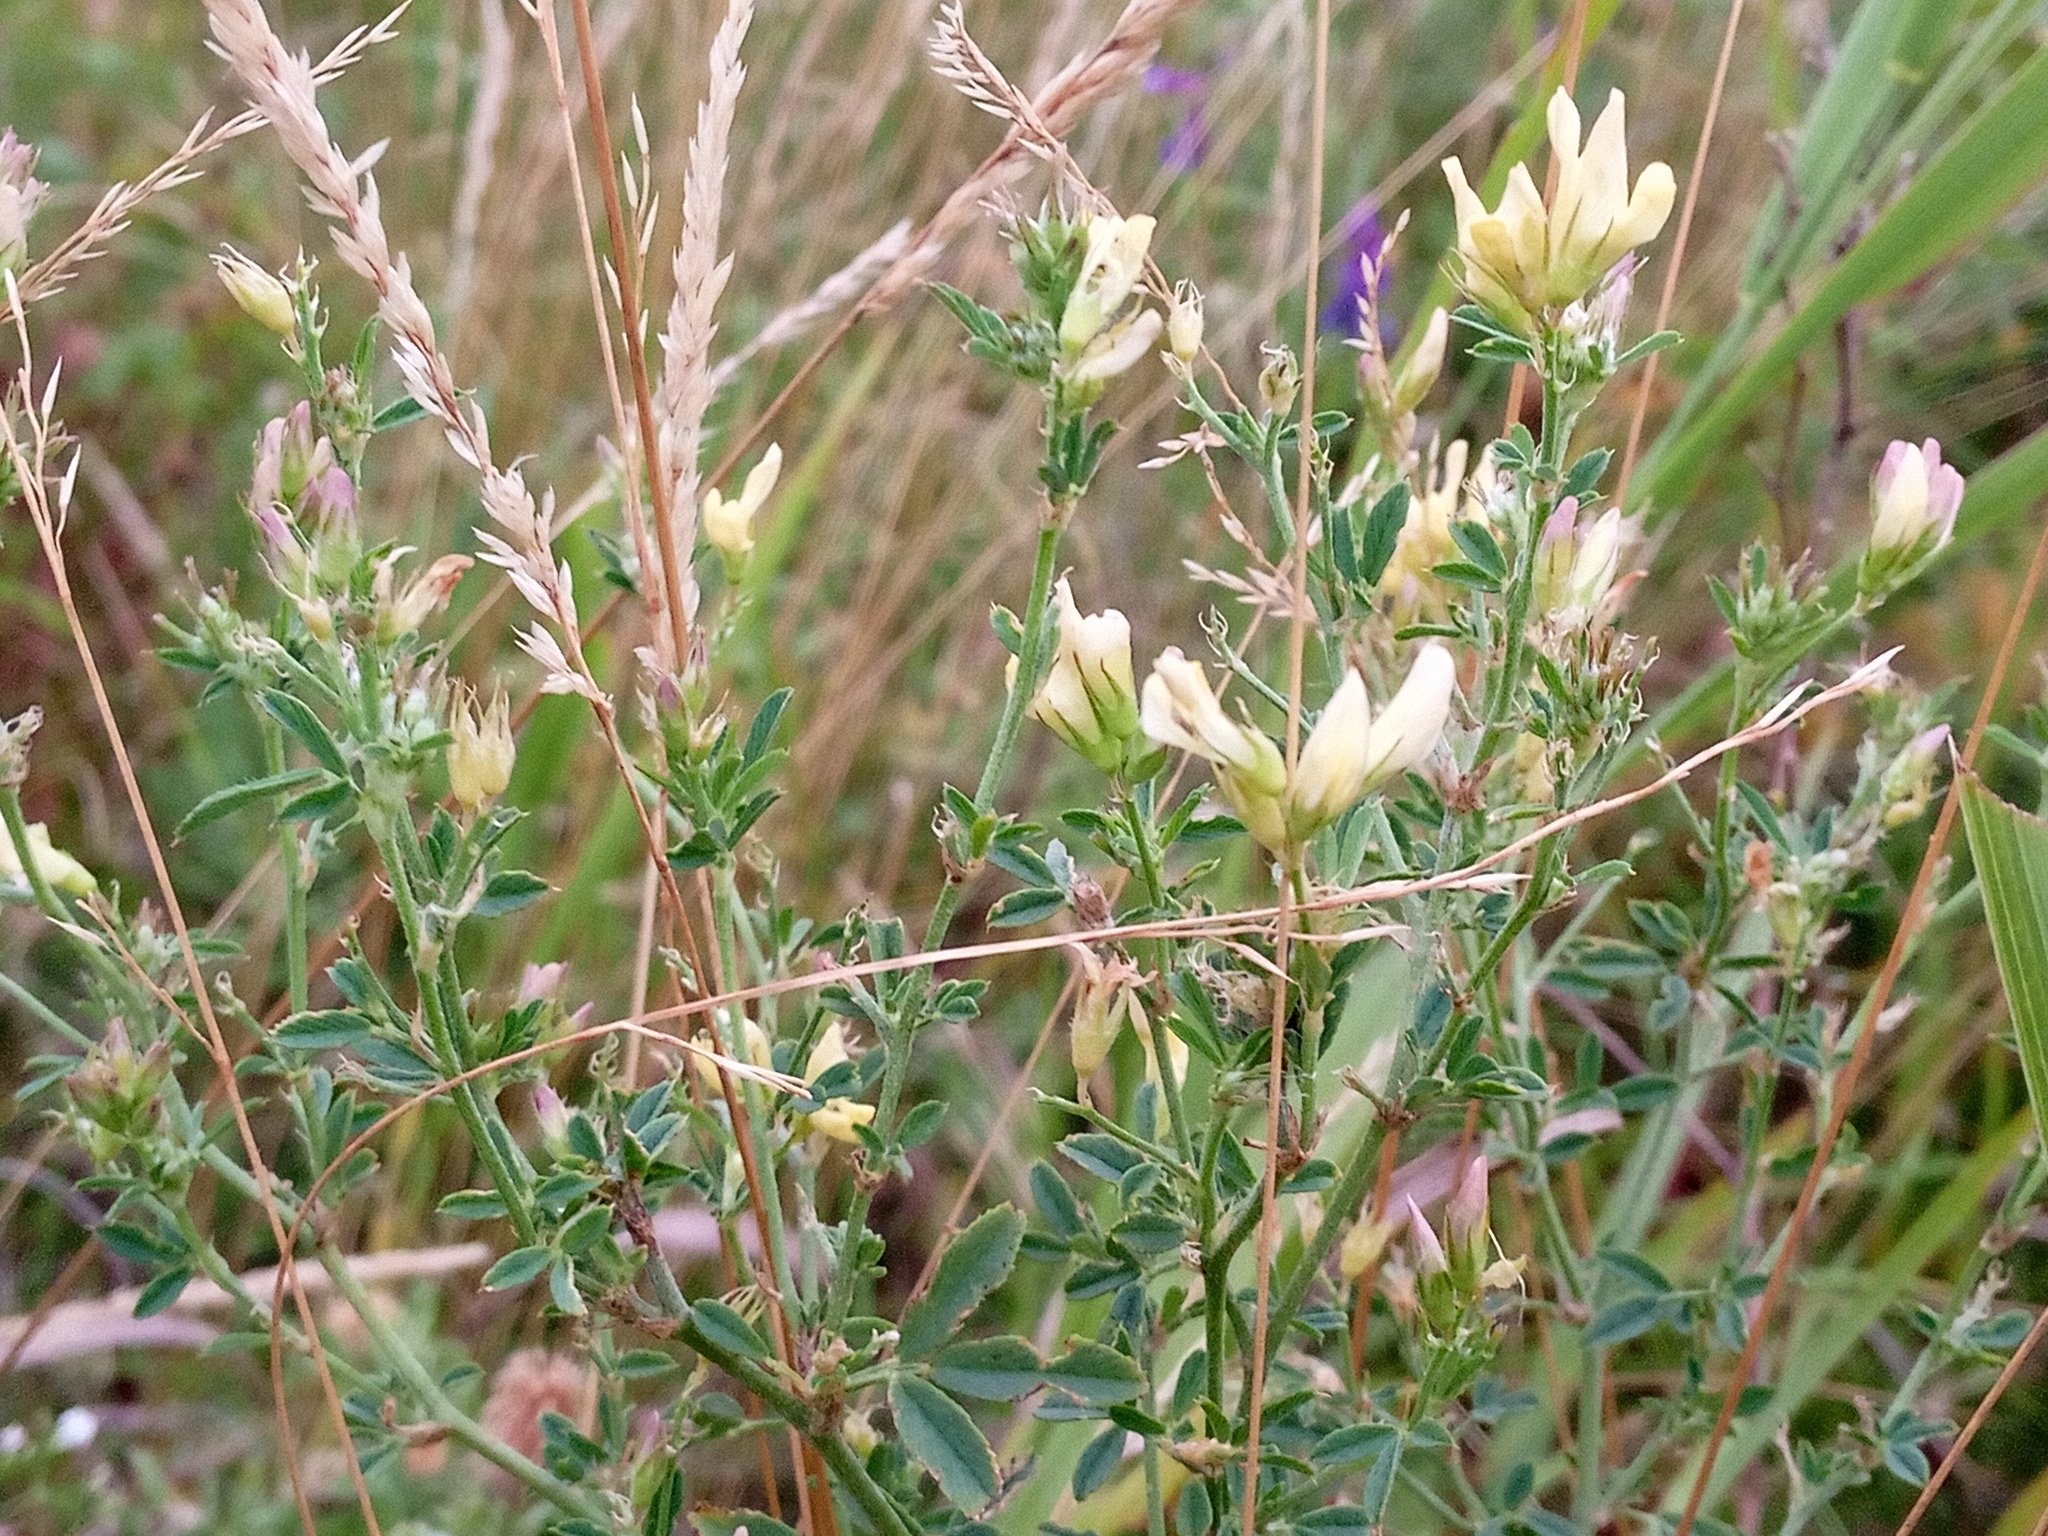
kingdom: Plantae
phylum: Tracheophyta
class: Magnoliopsida
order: Fabales
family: Fabaceae
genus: Medicago
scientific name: Medicago falcata
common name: Sickle medick
